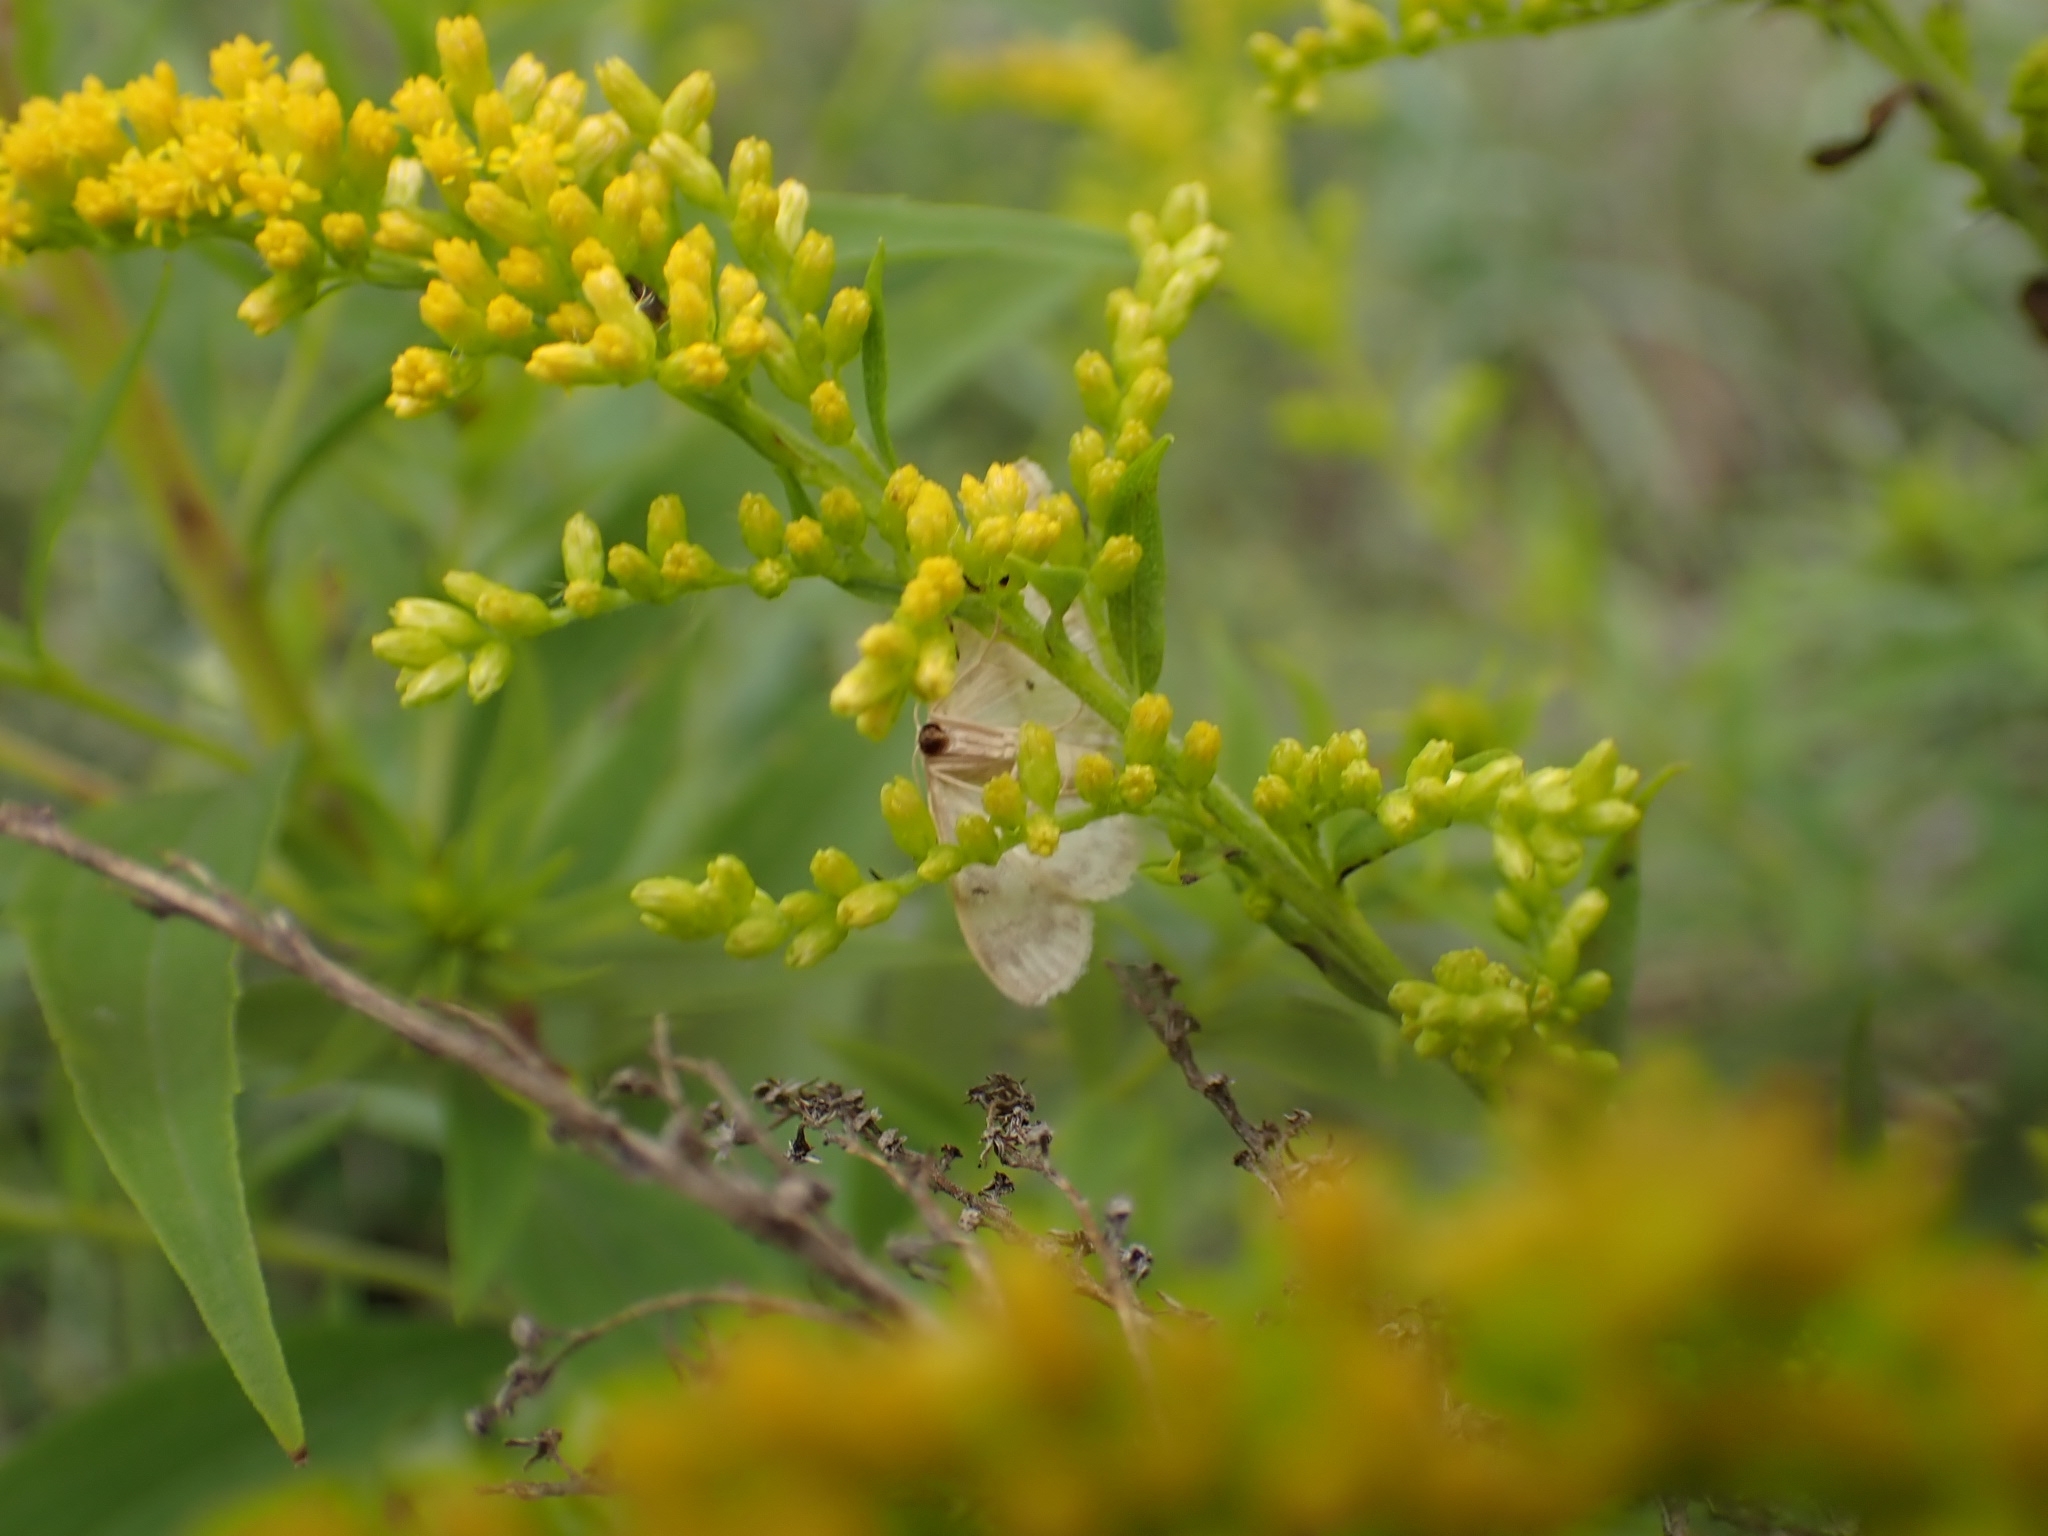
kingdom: Animalia
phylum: Arthropoda
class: Insecta
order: Lepidoptera
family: Geometridae
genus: Idaea
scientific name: Idaea biselata
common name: Small fan-footed wave
